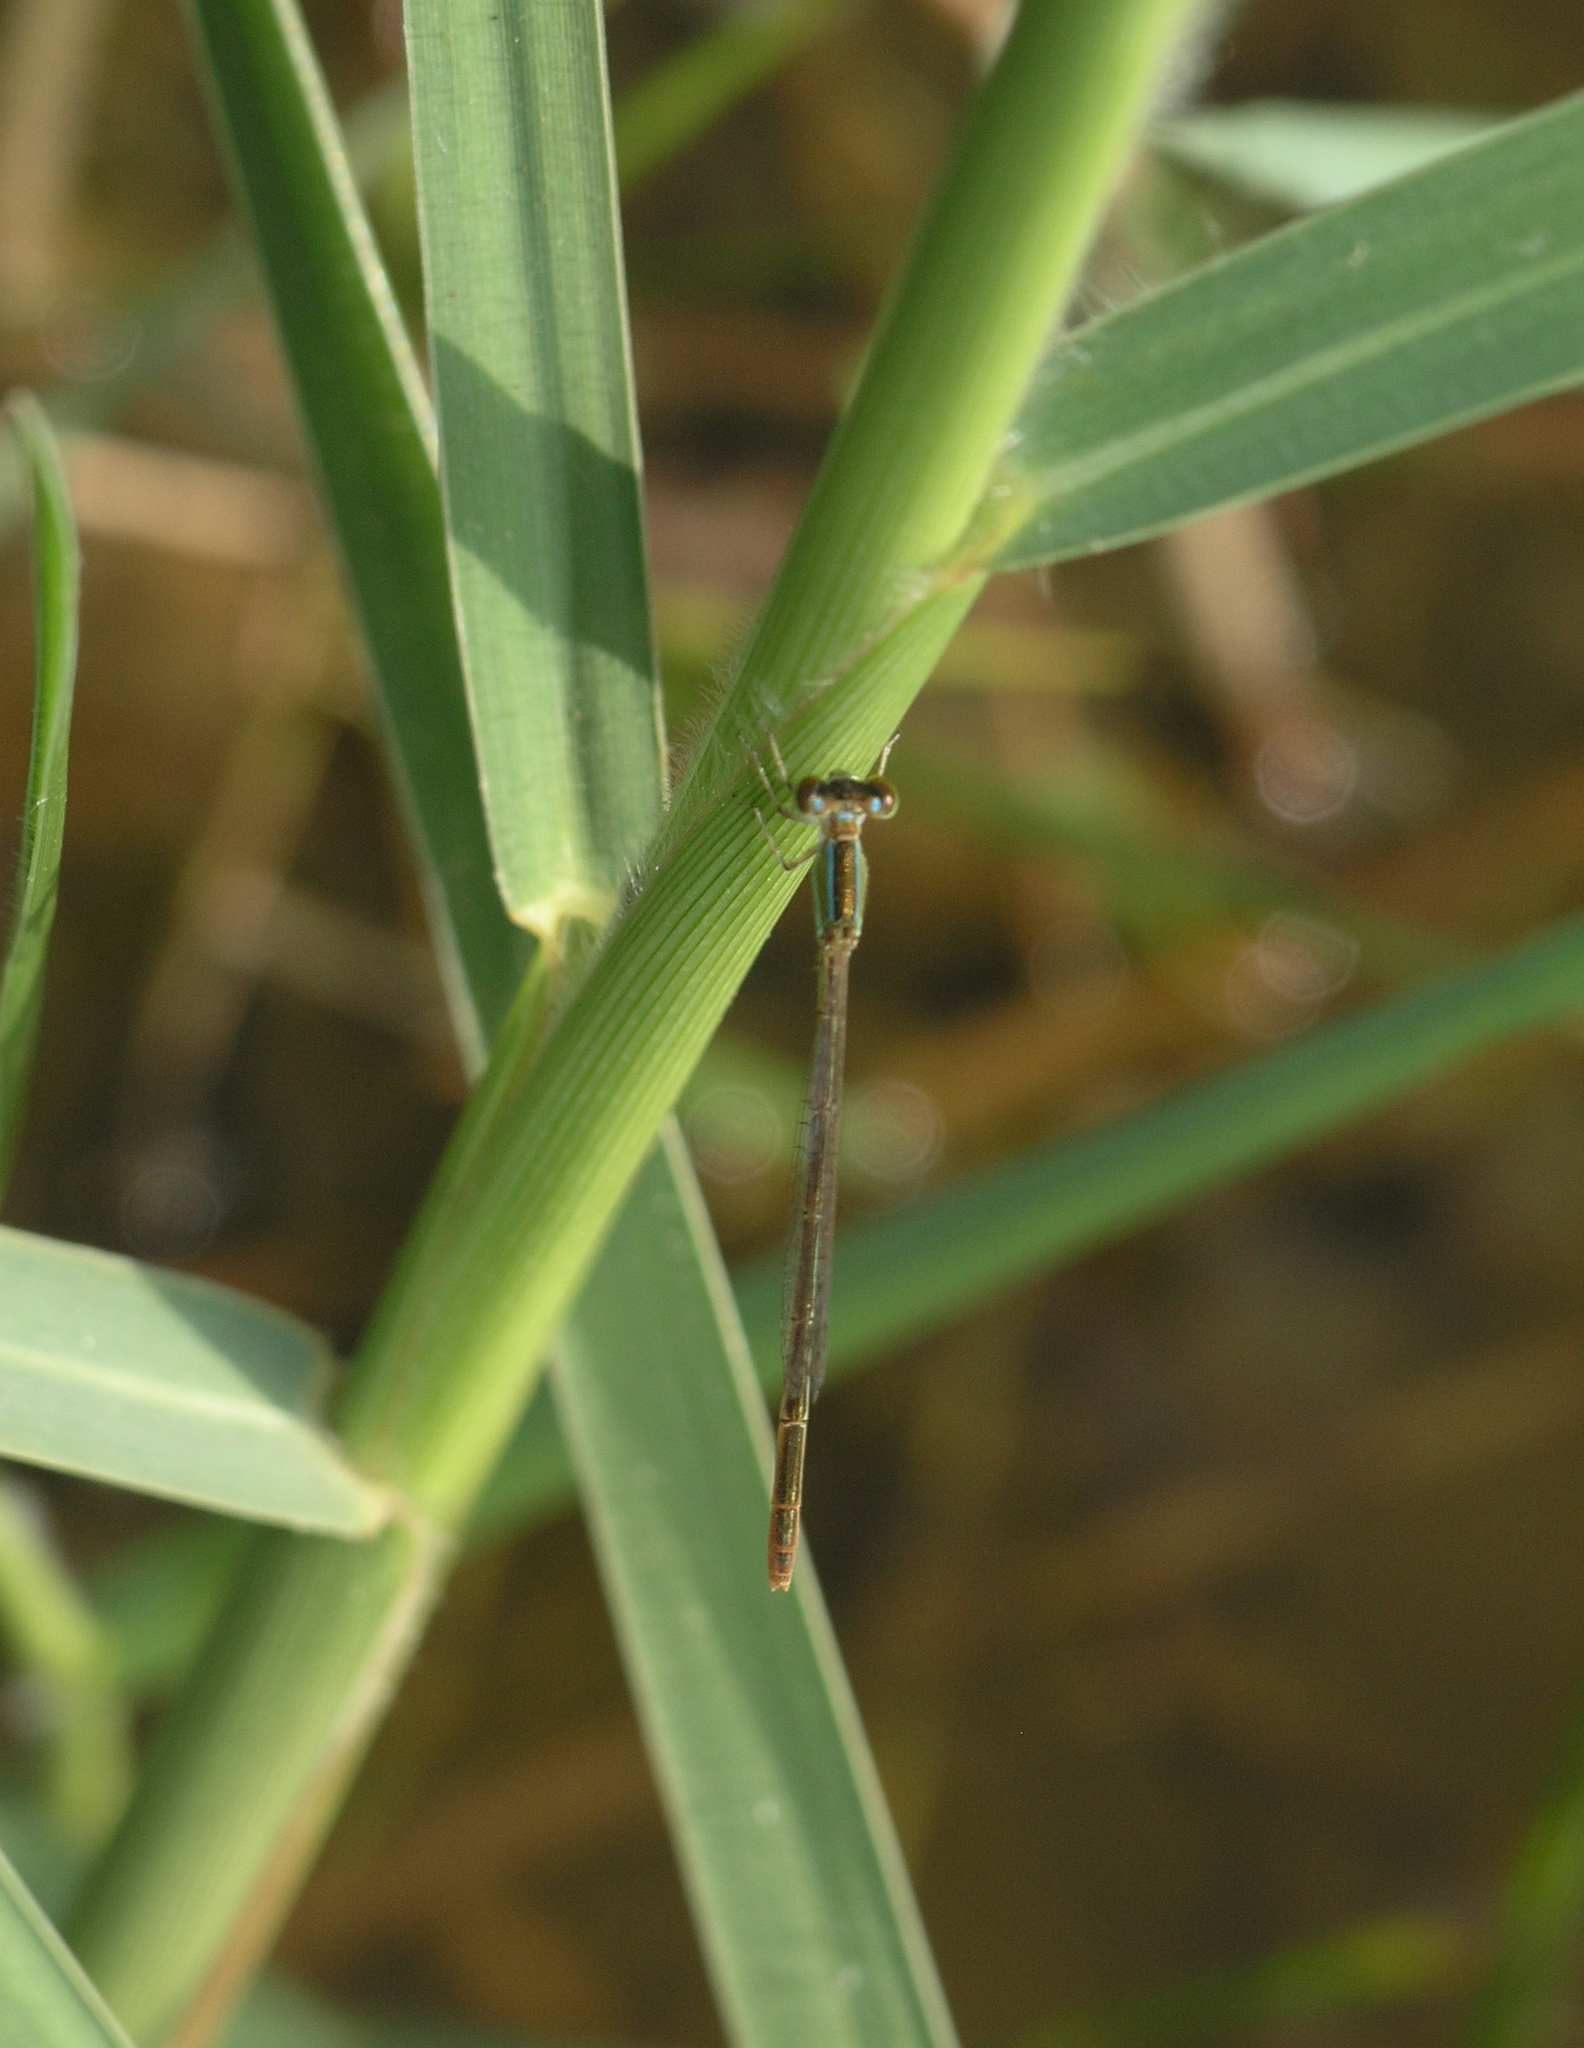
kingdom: Animalia
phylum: Arthropoda
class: Insecta
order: Odonata
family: Coenagrionidae
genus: Agriocnemis
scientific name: Agriocnemis pygmaea
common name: Pygmy wisp
